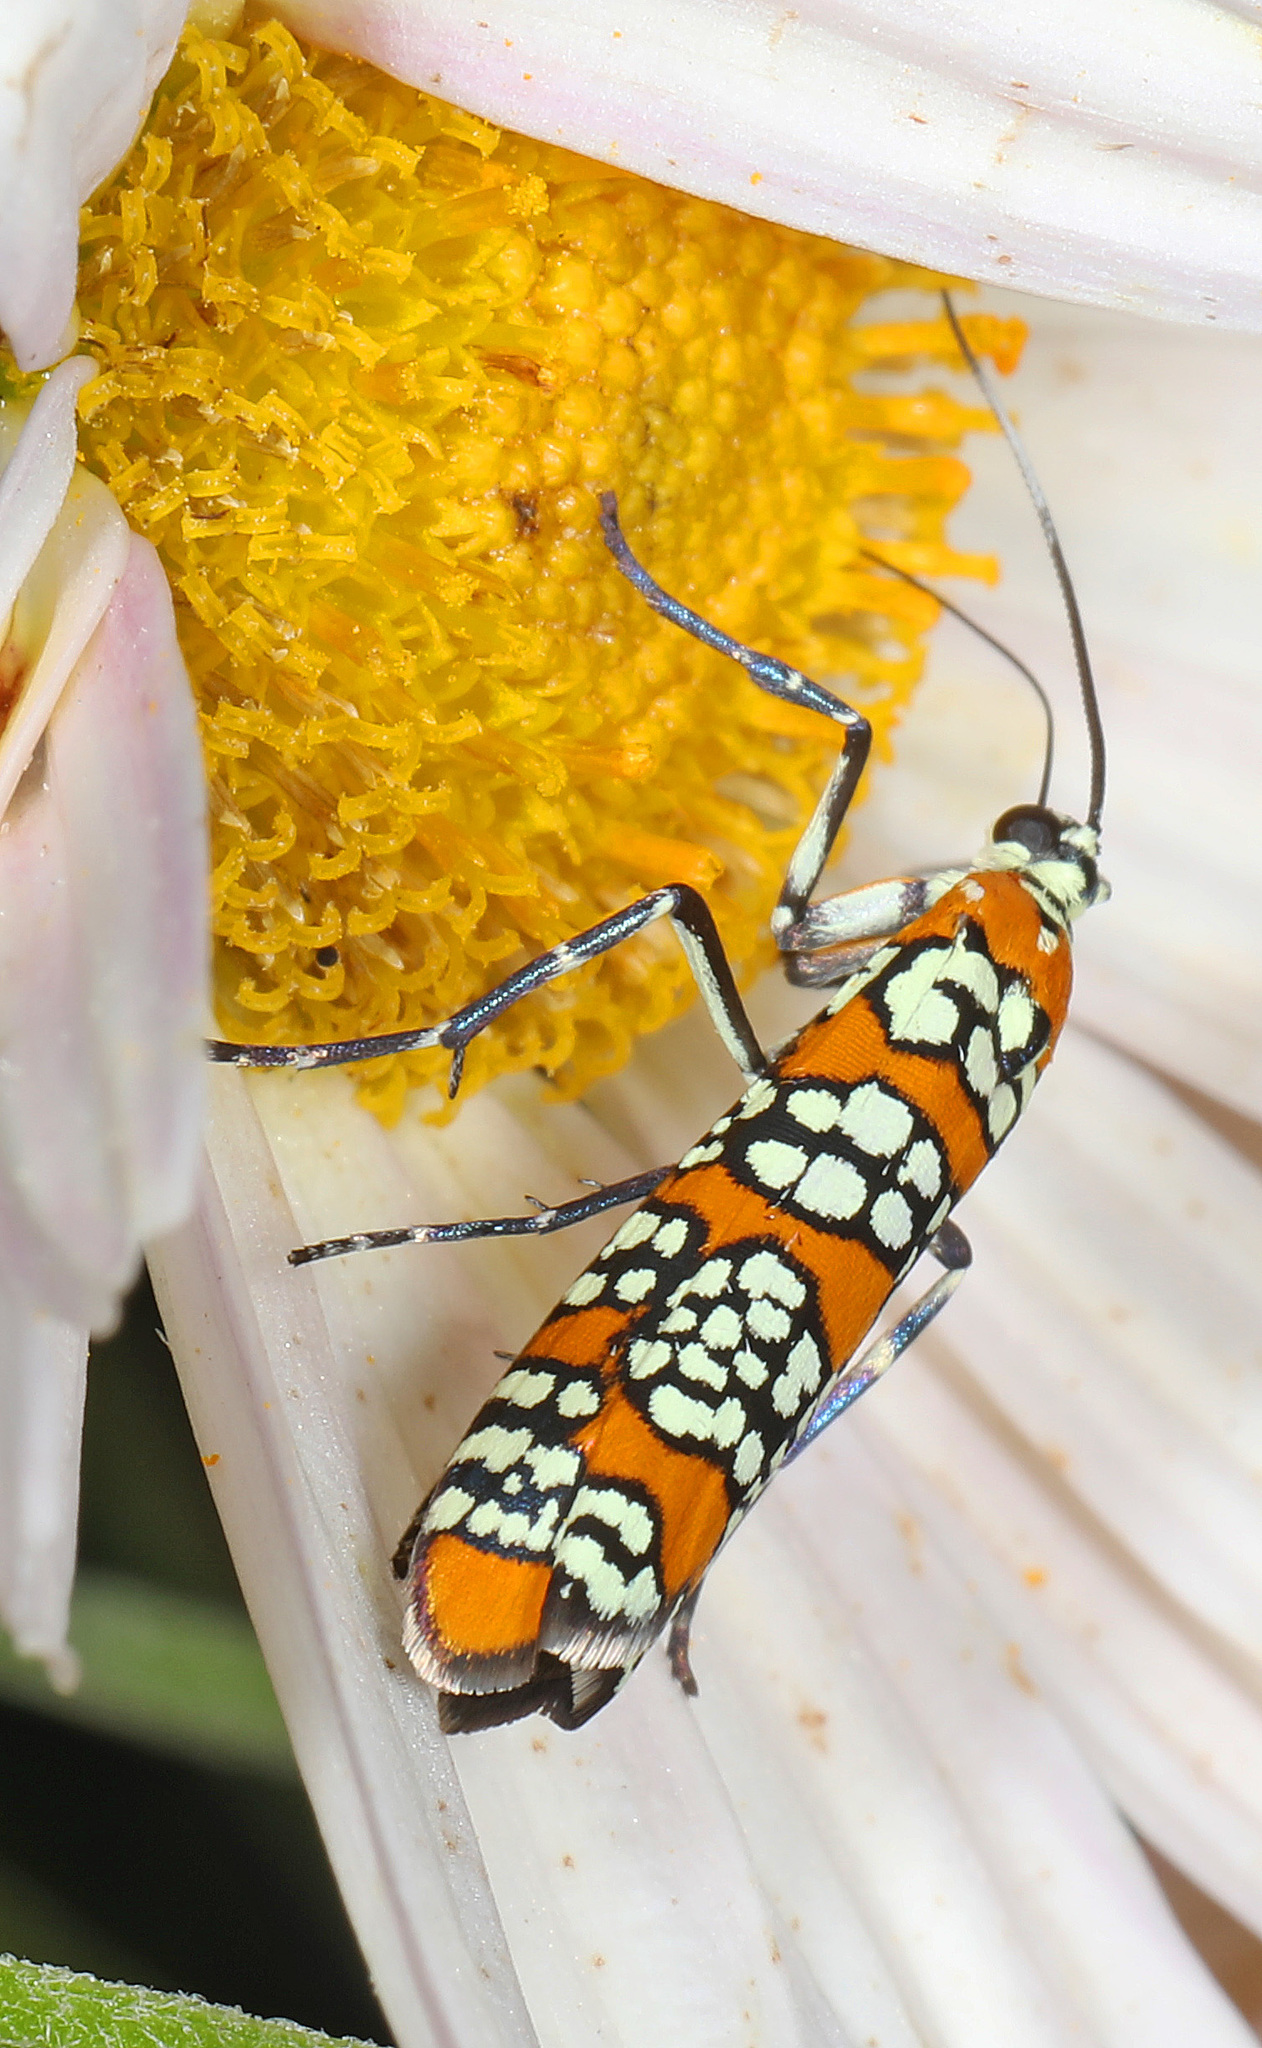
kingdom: Animalia
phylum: Arthropoda
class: Insecta
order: Lepidoptera
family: Attevidae
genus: Atteva
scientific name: Atteva punctella
